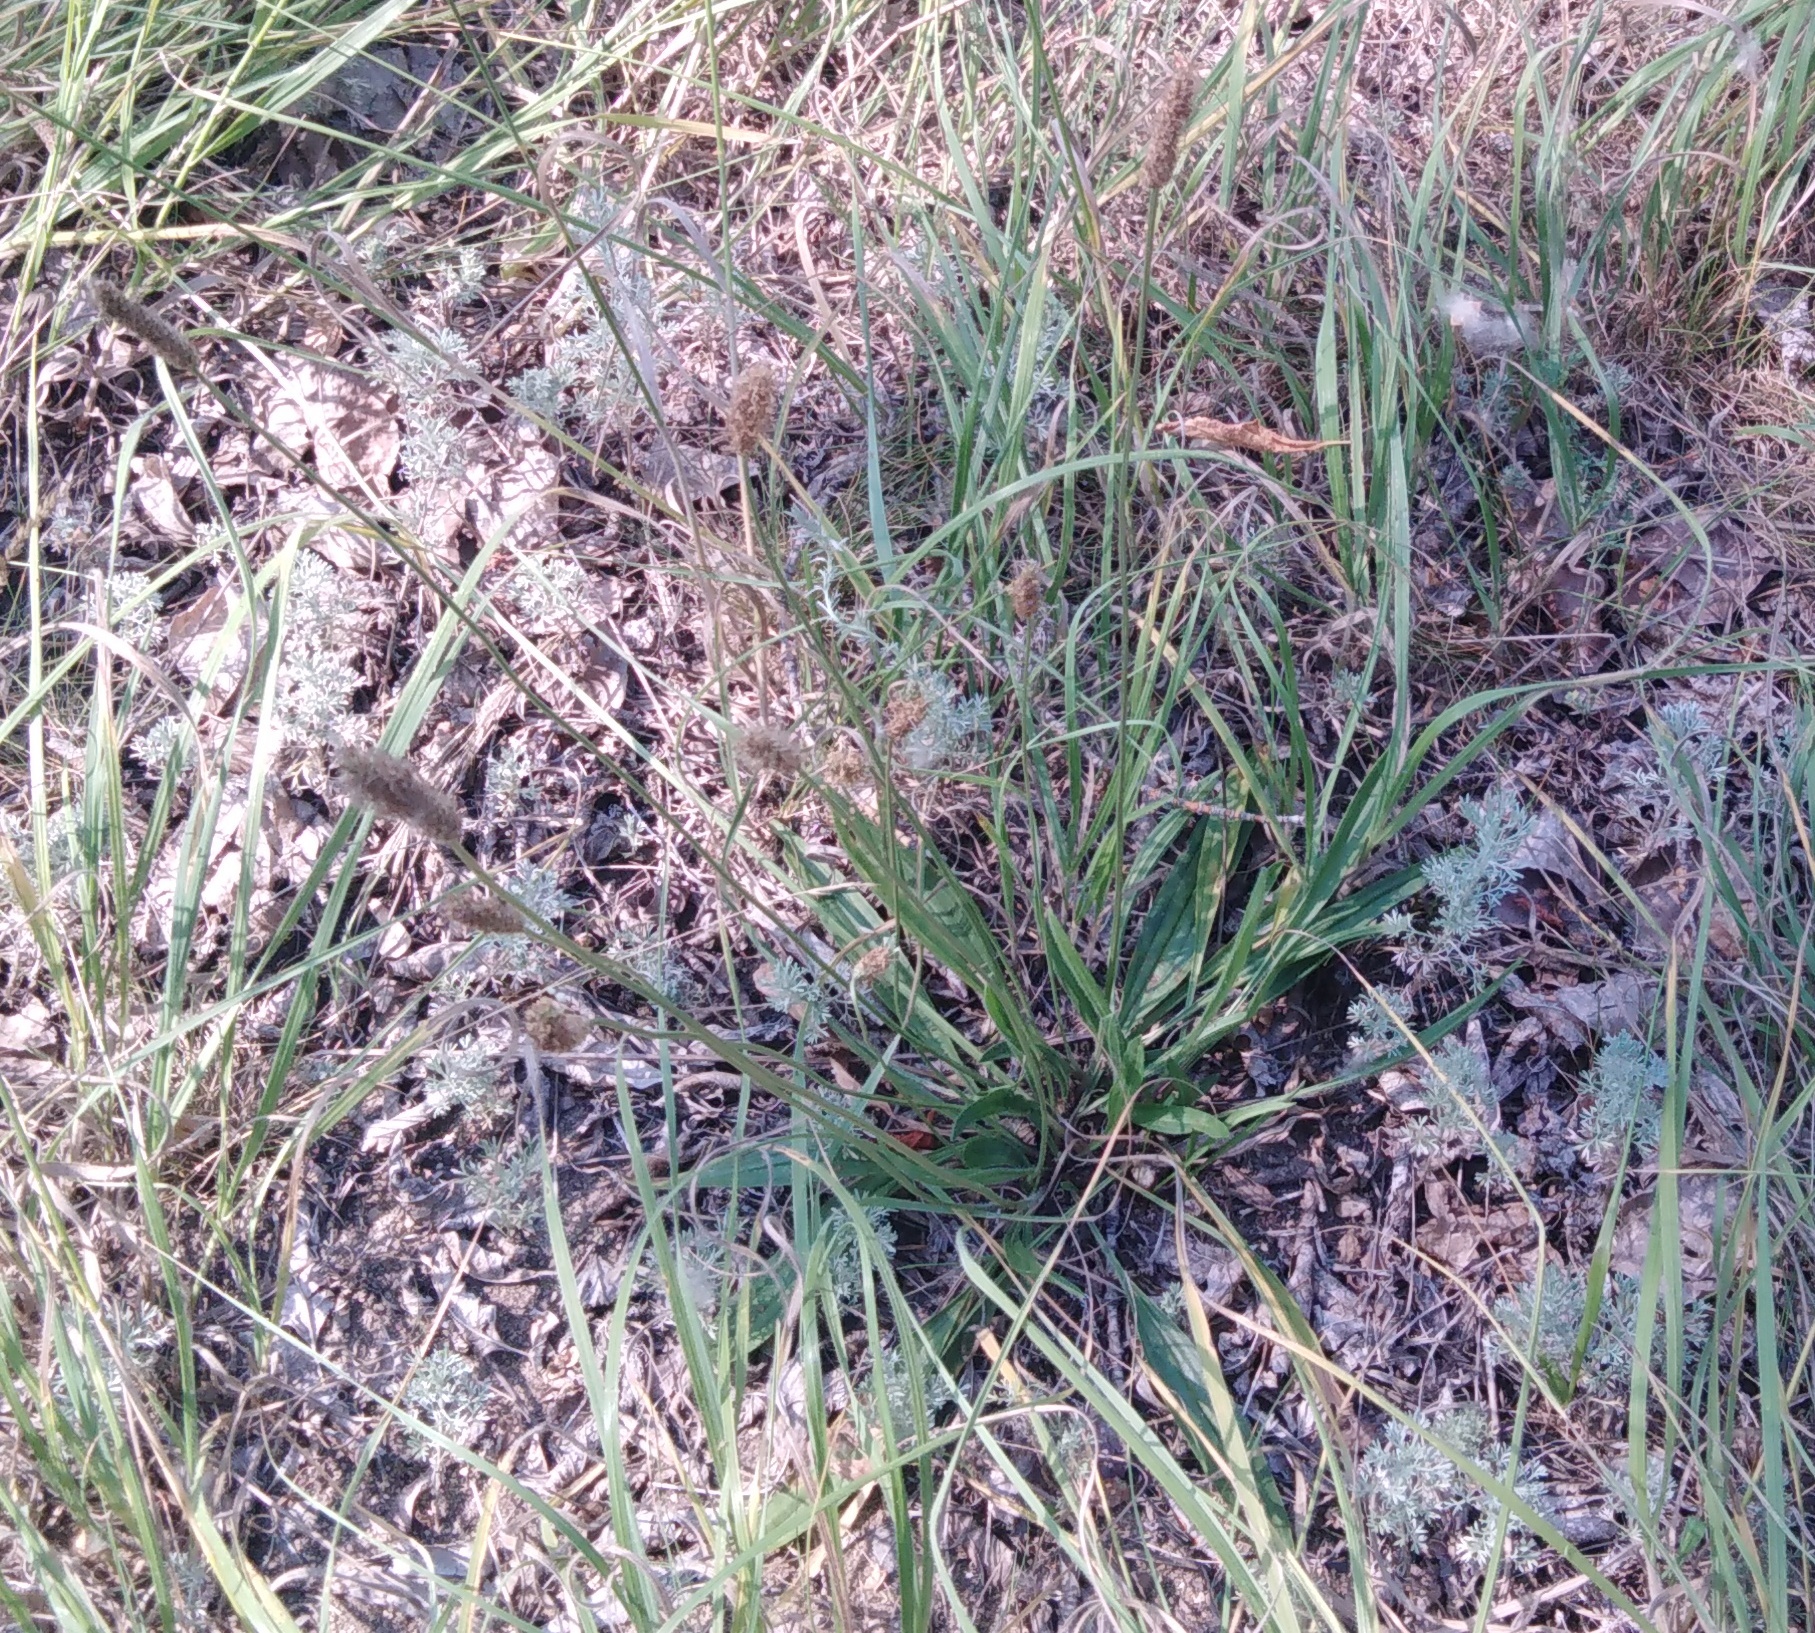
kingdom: Plantae
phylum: Tracheophyta
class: Magnoliopsida
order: Lamiales
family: Plantaginaceae
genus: Plantago
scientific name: Plantago lanceolata
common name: Ribwort plantain
